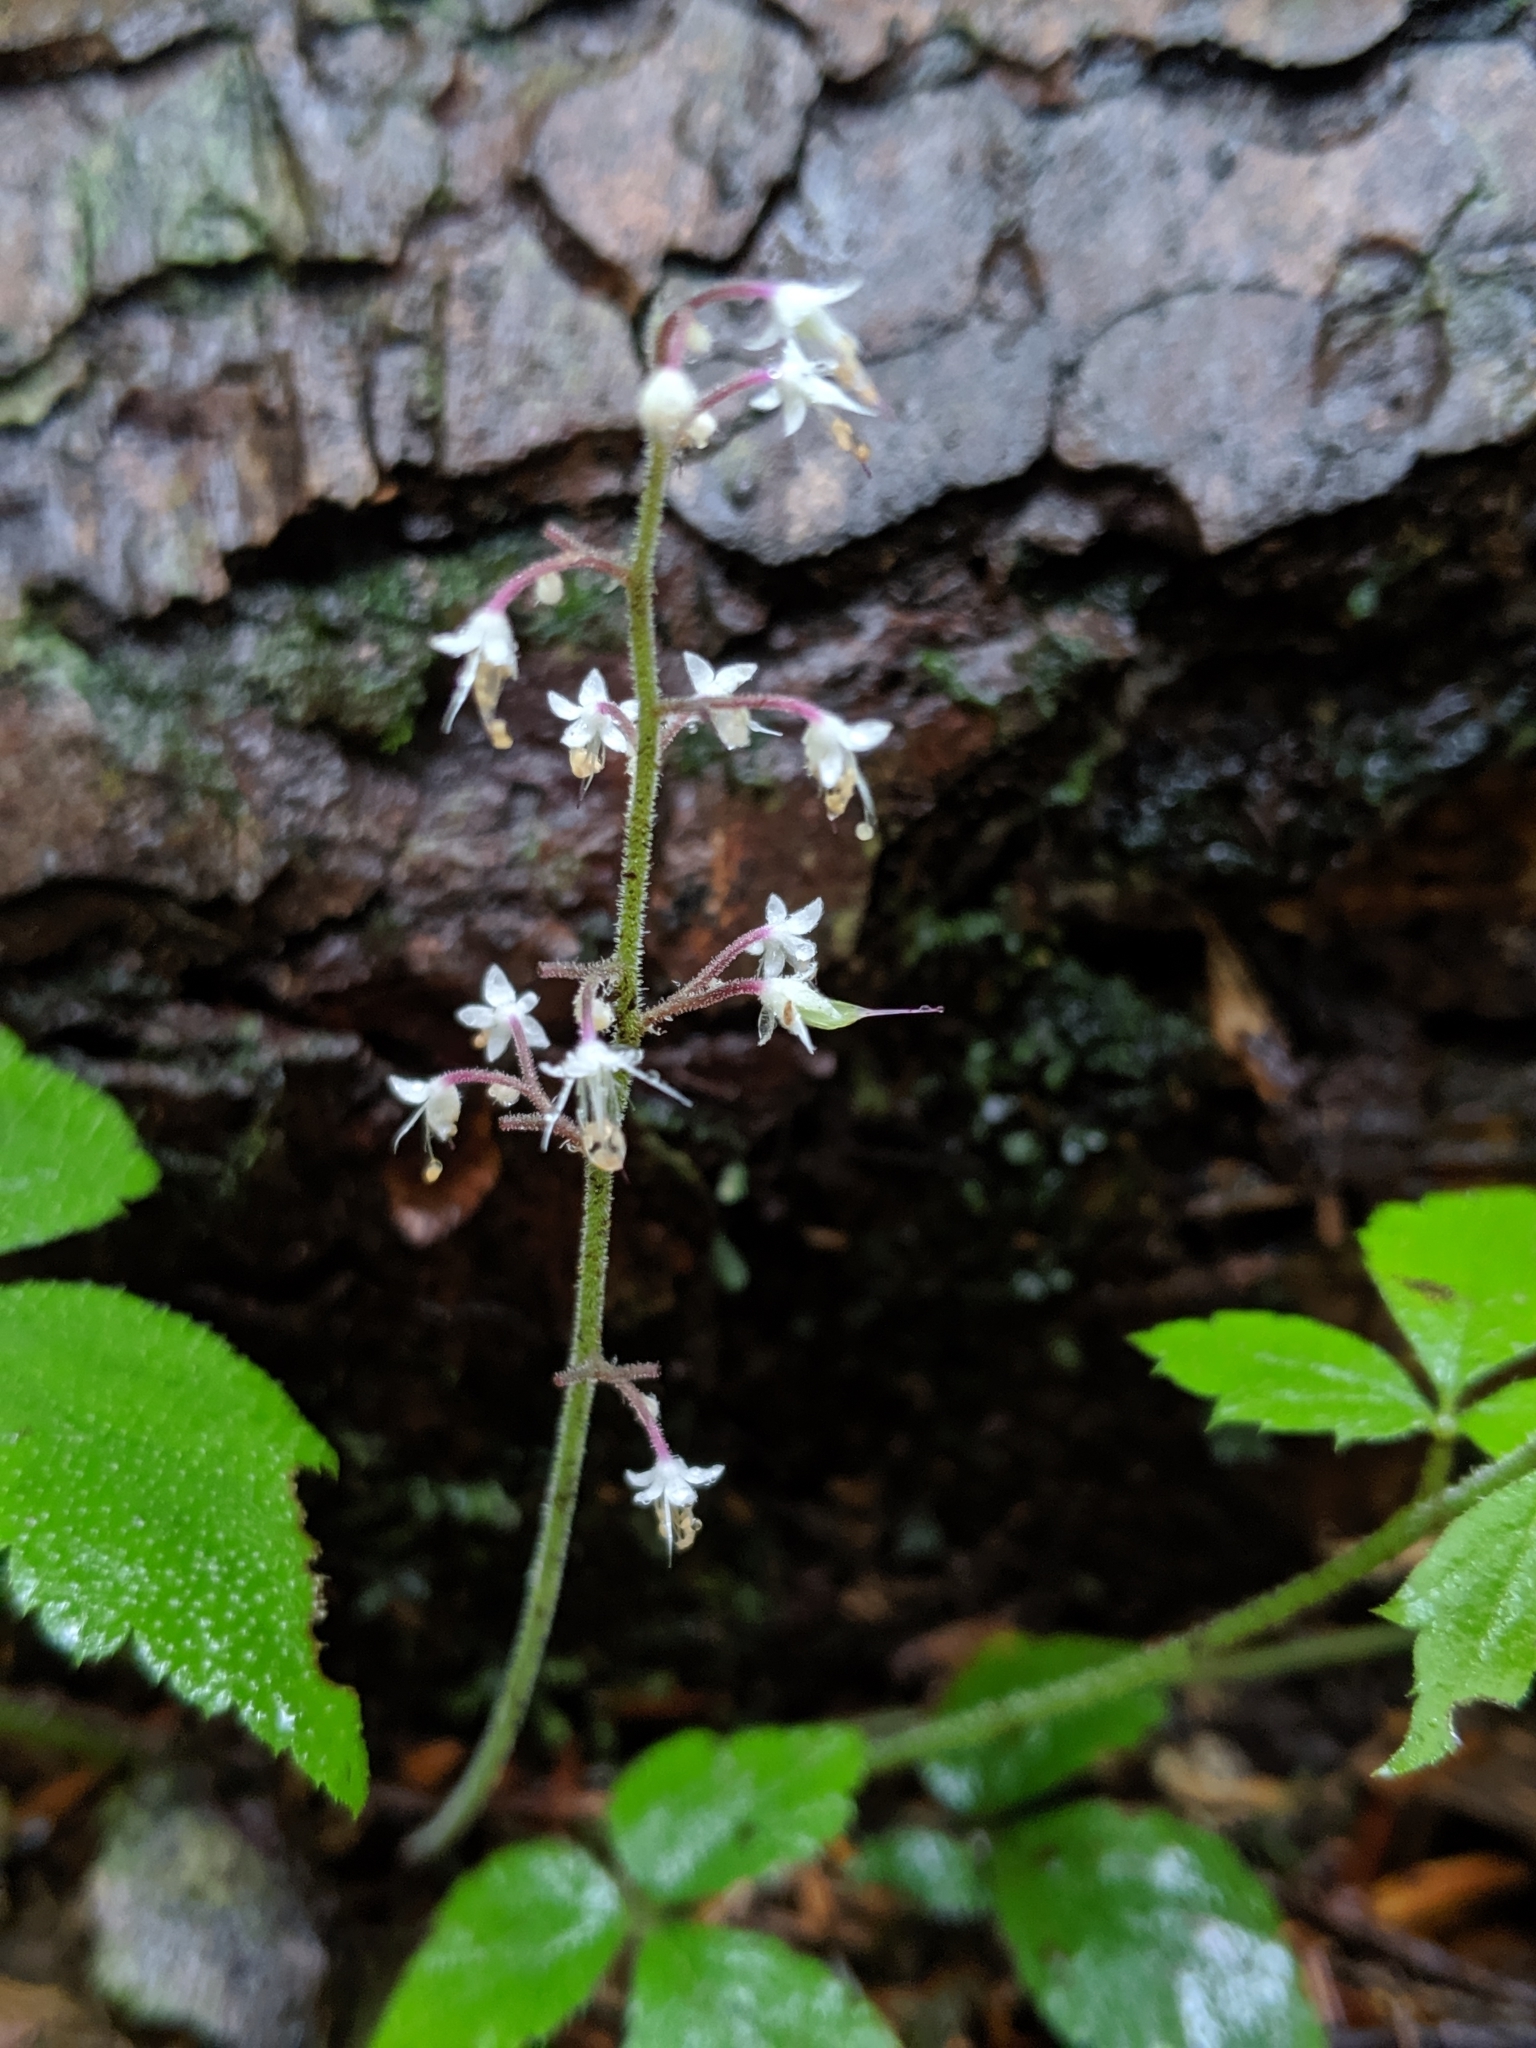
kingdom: Plantae
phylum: Tracheophyta
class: Magnoliopsida
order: Saxifragales
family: Saxifragaceae
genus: Tiarella
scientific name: Tiarella trifoliata
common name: Sugar-scoop
